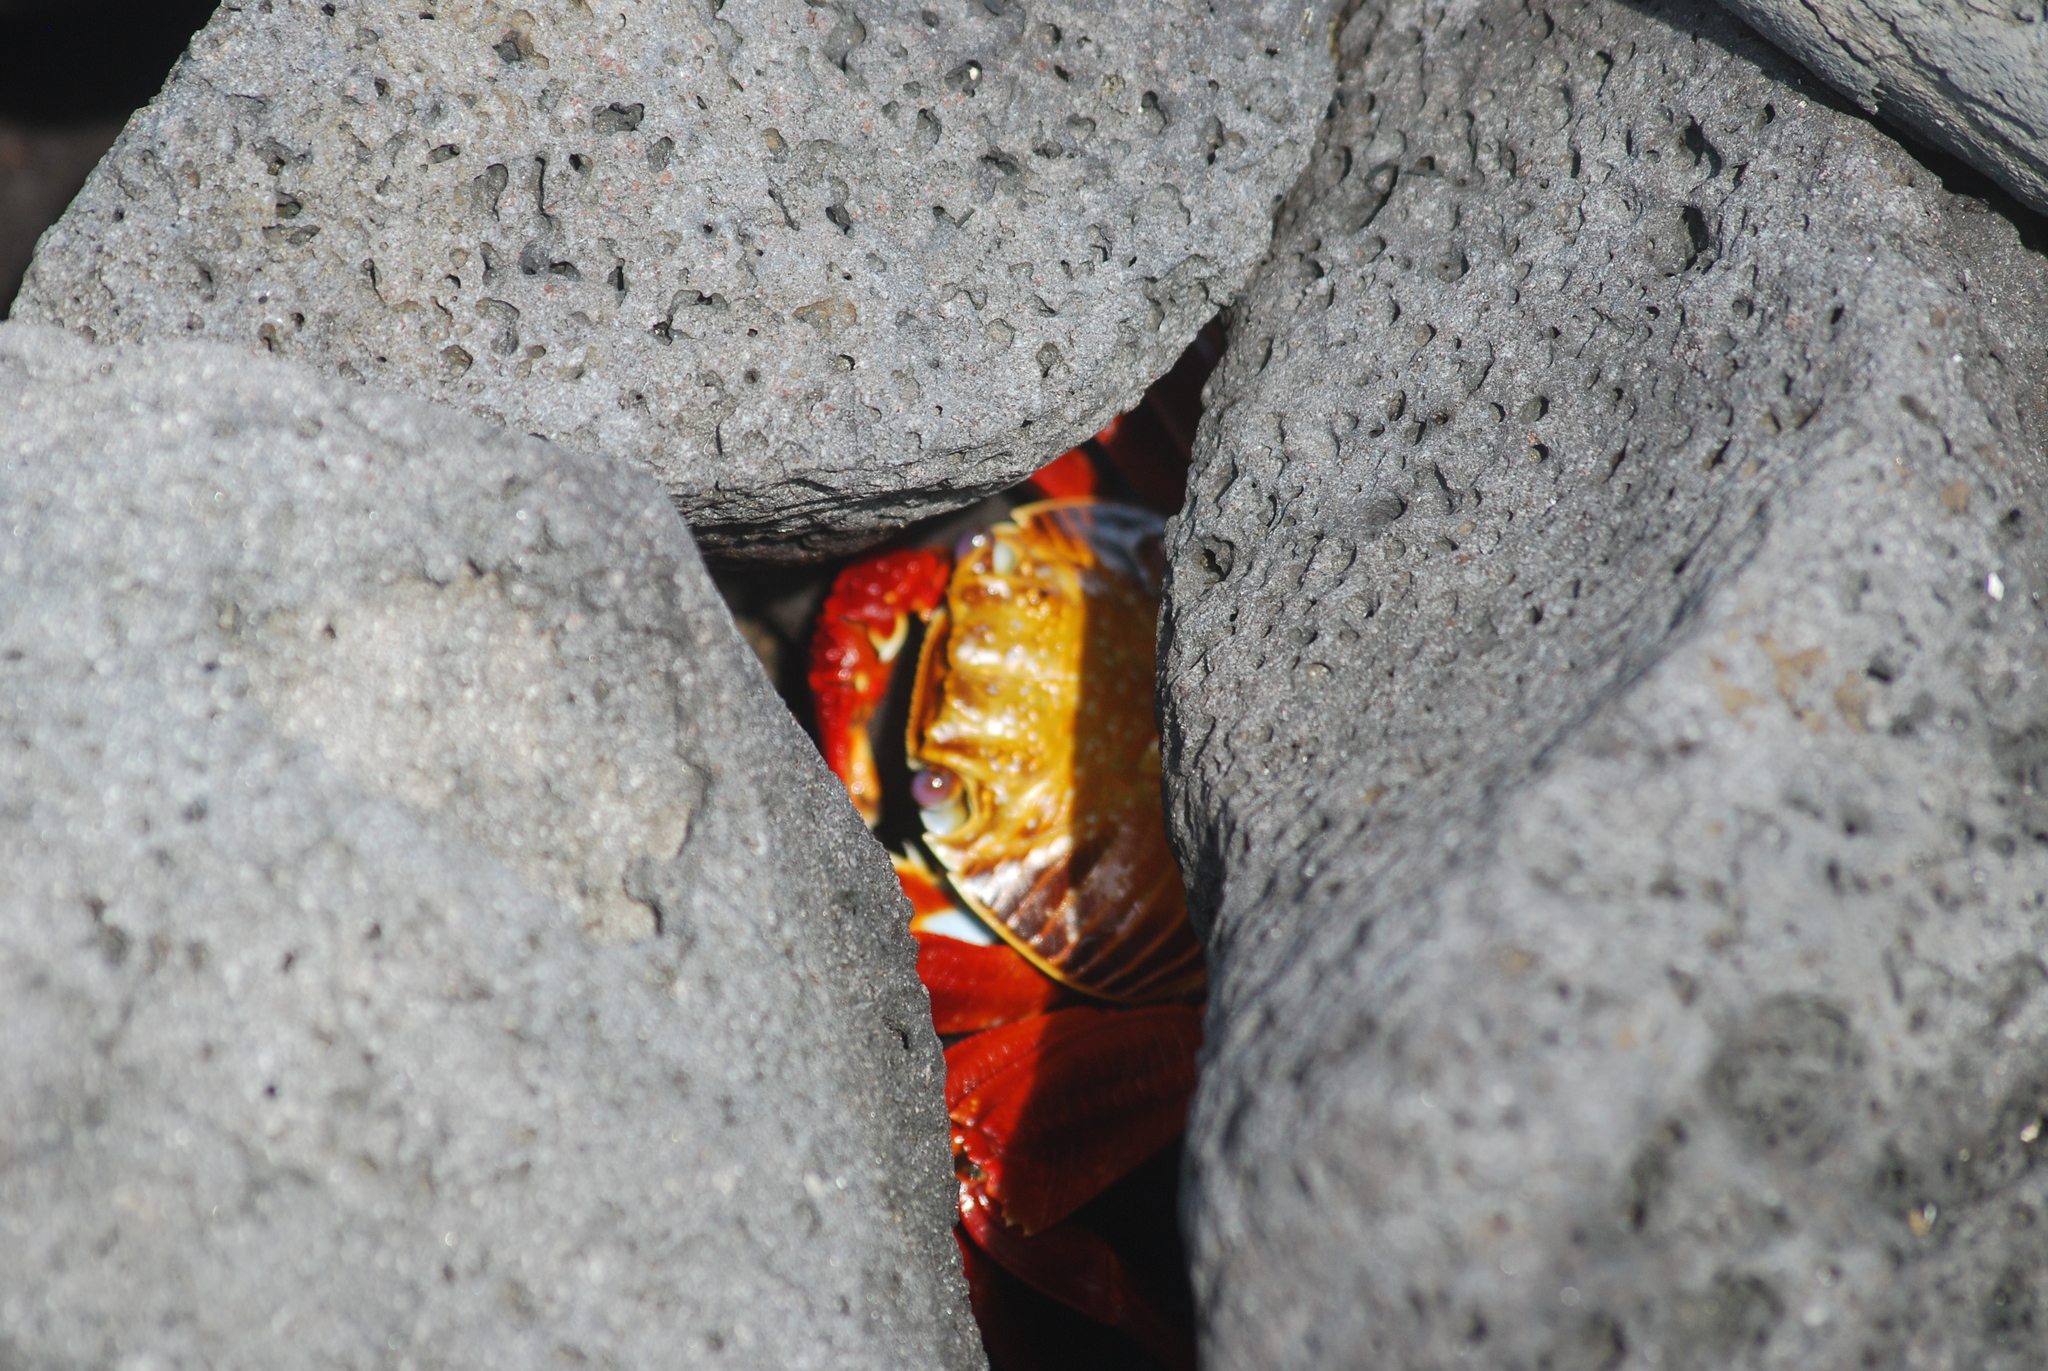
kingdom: Animalia
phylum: Arthropoda
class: Malacostraca
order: Decapoda
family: Grapsidae
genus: Grapsus
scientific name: Grapsus grapsus
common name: Sally lightfoot
